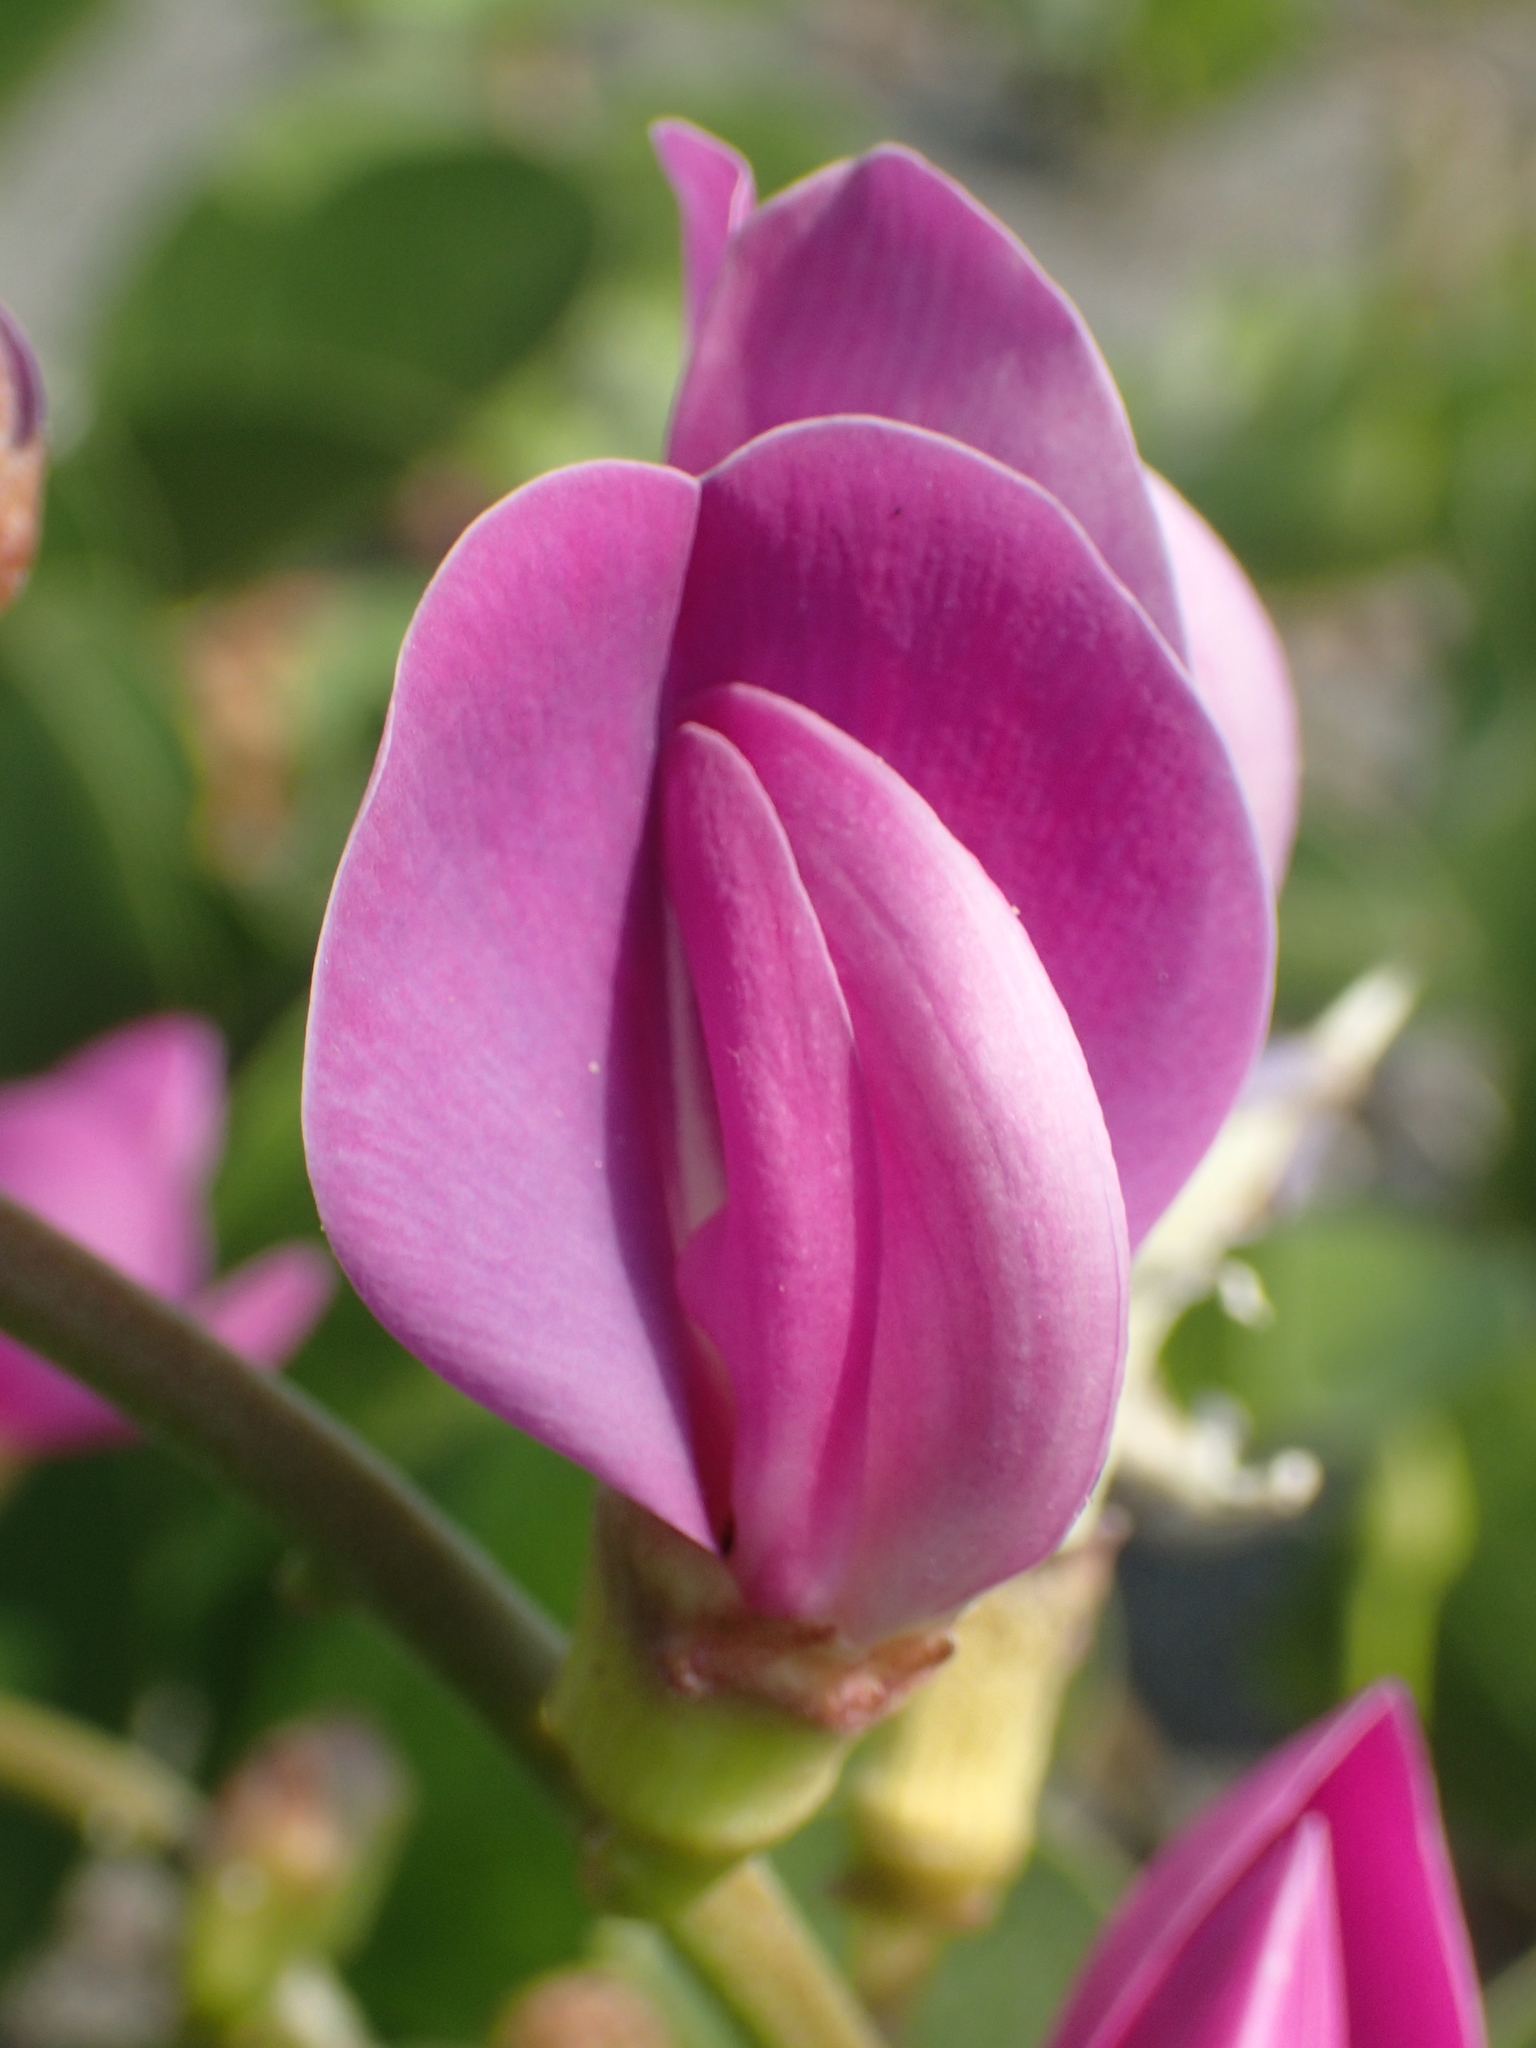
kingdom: Plantae
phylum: Tracheophyta
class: Magnoliopsida
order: Fabales
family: Fabaceae
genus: Canavalia
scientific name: Canavalia lineata
